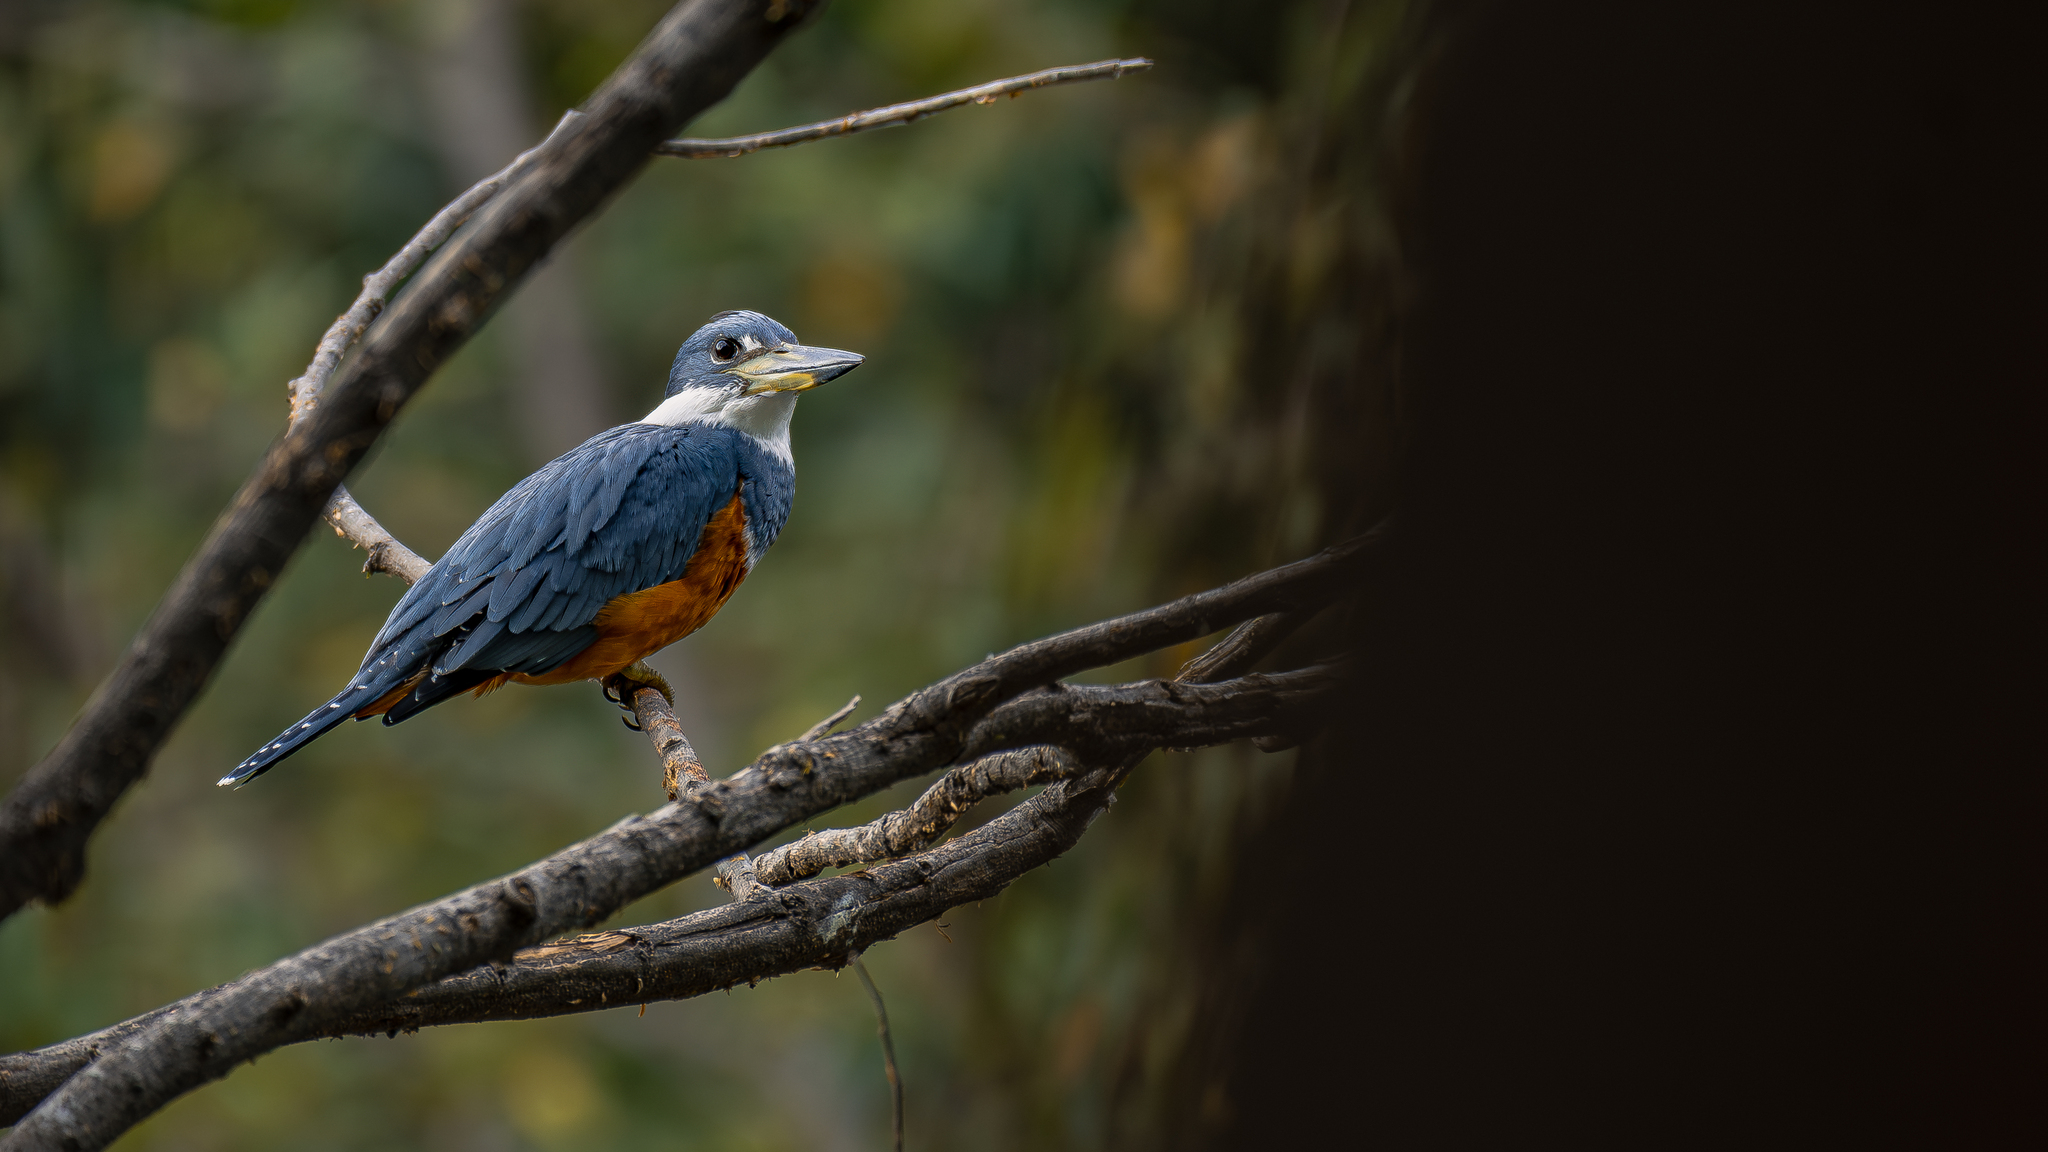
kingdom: Animalia
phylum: Chordata
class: Aves
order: Coraciiformes
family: Alcedinidae
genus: Megaceryle
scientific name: Megaceryle torquata
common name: Ringed kingfisher
